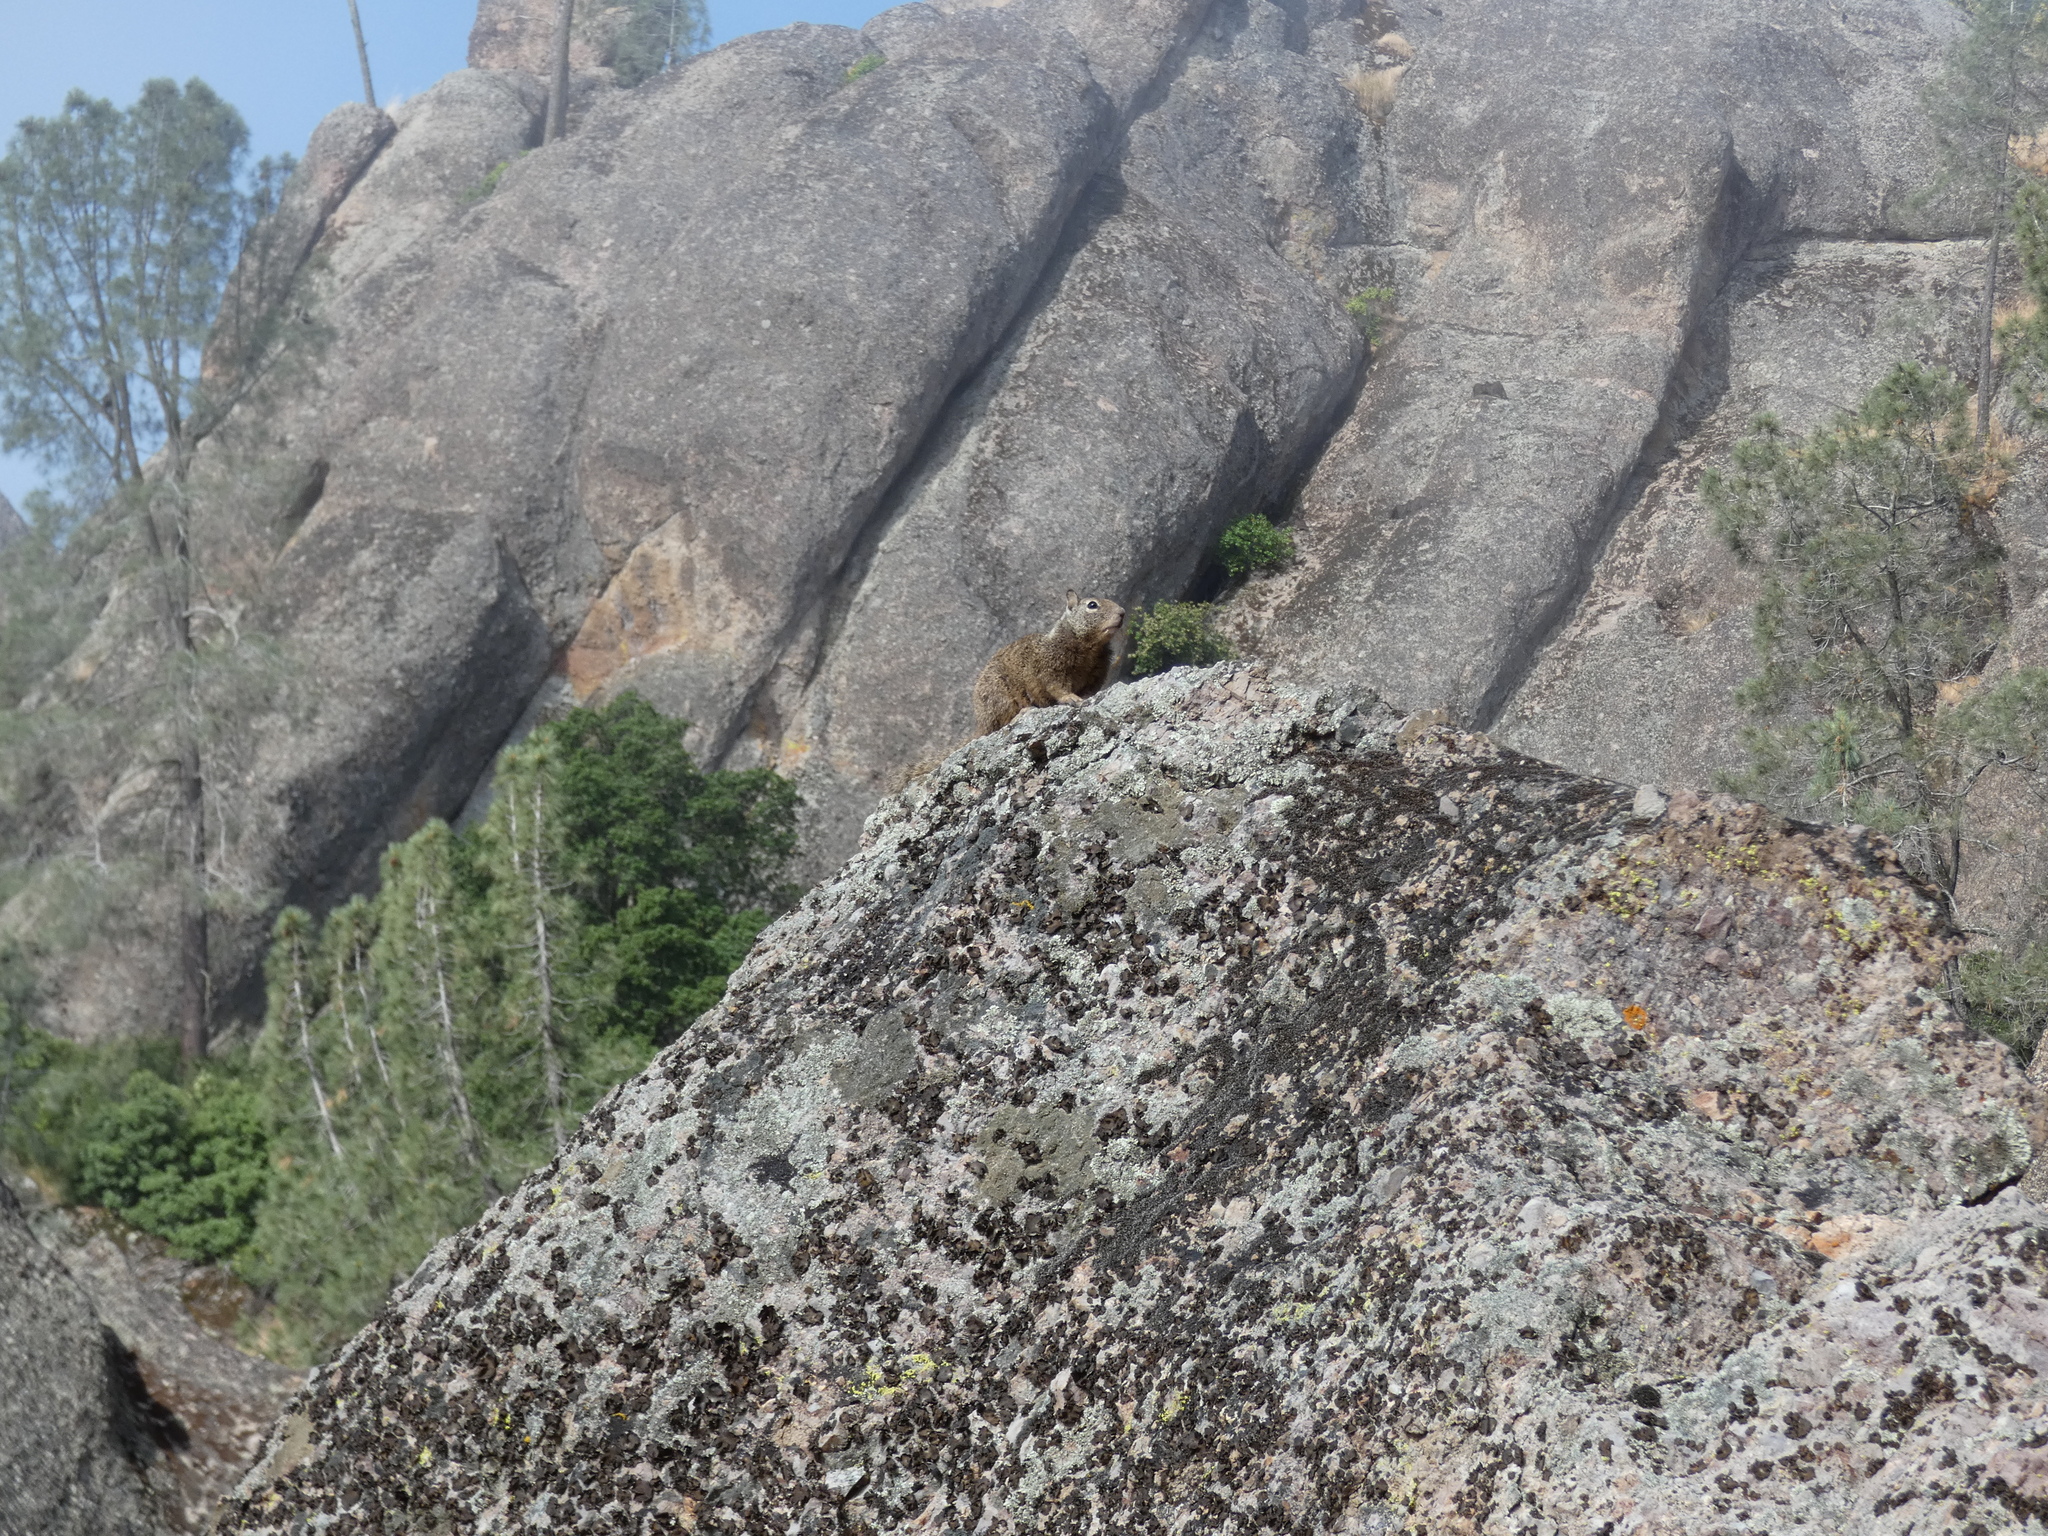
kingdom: Animalia
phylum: Chordata
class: Mammalia
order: Rodentia
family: Sciuridae
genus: Otospermophilus
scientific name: Otospermophilus beecheyi
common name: California ground squirrel
